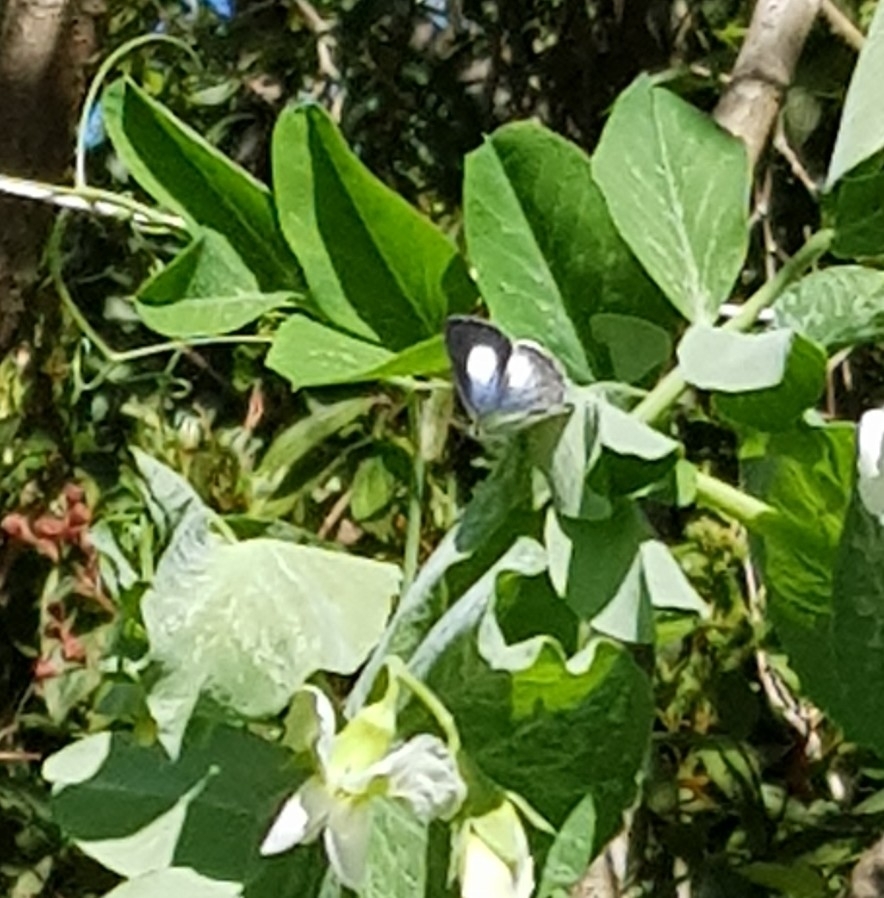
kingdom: Animalia
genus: Eirmocides
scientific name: Eirmocides
